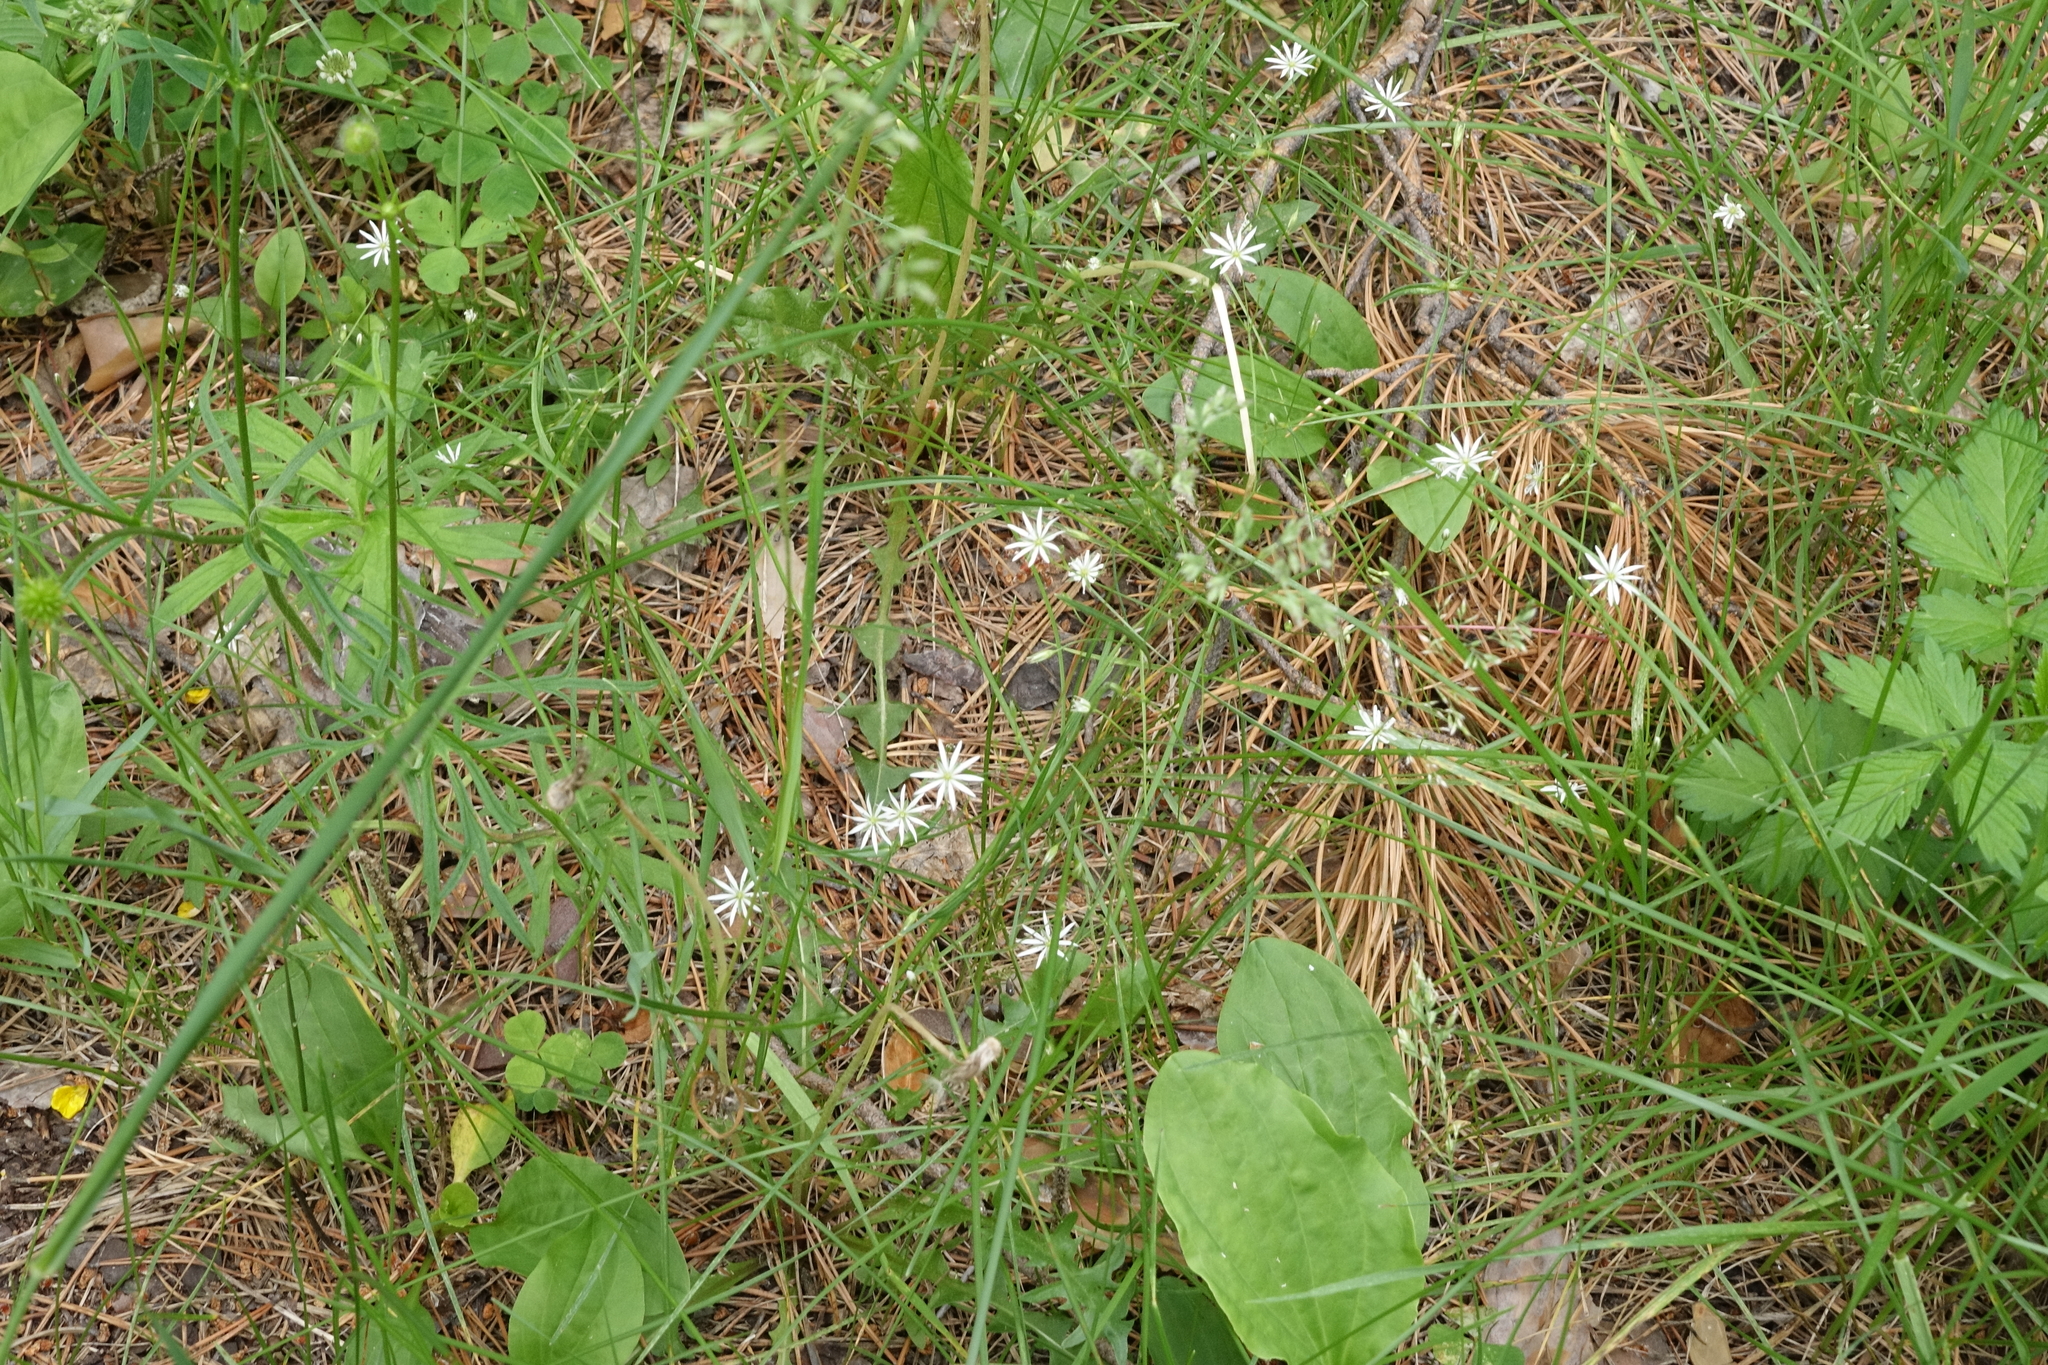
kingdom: Plantae
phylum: Tracheophyta
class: Magnoliopsida
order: Caryophyllales
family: Caryophyllaceae
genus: Stellaria
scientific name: Stellaria graminea
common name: Grass-like starwort
